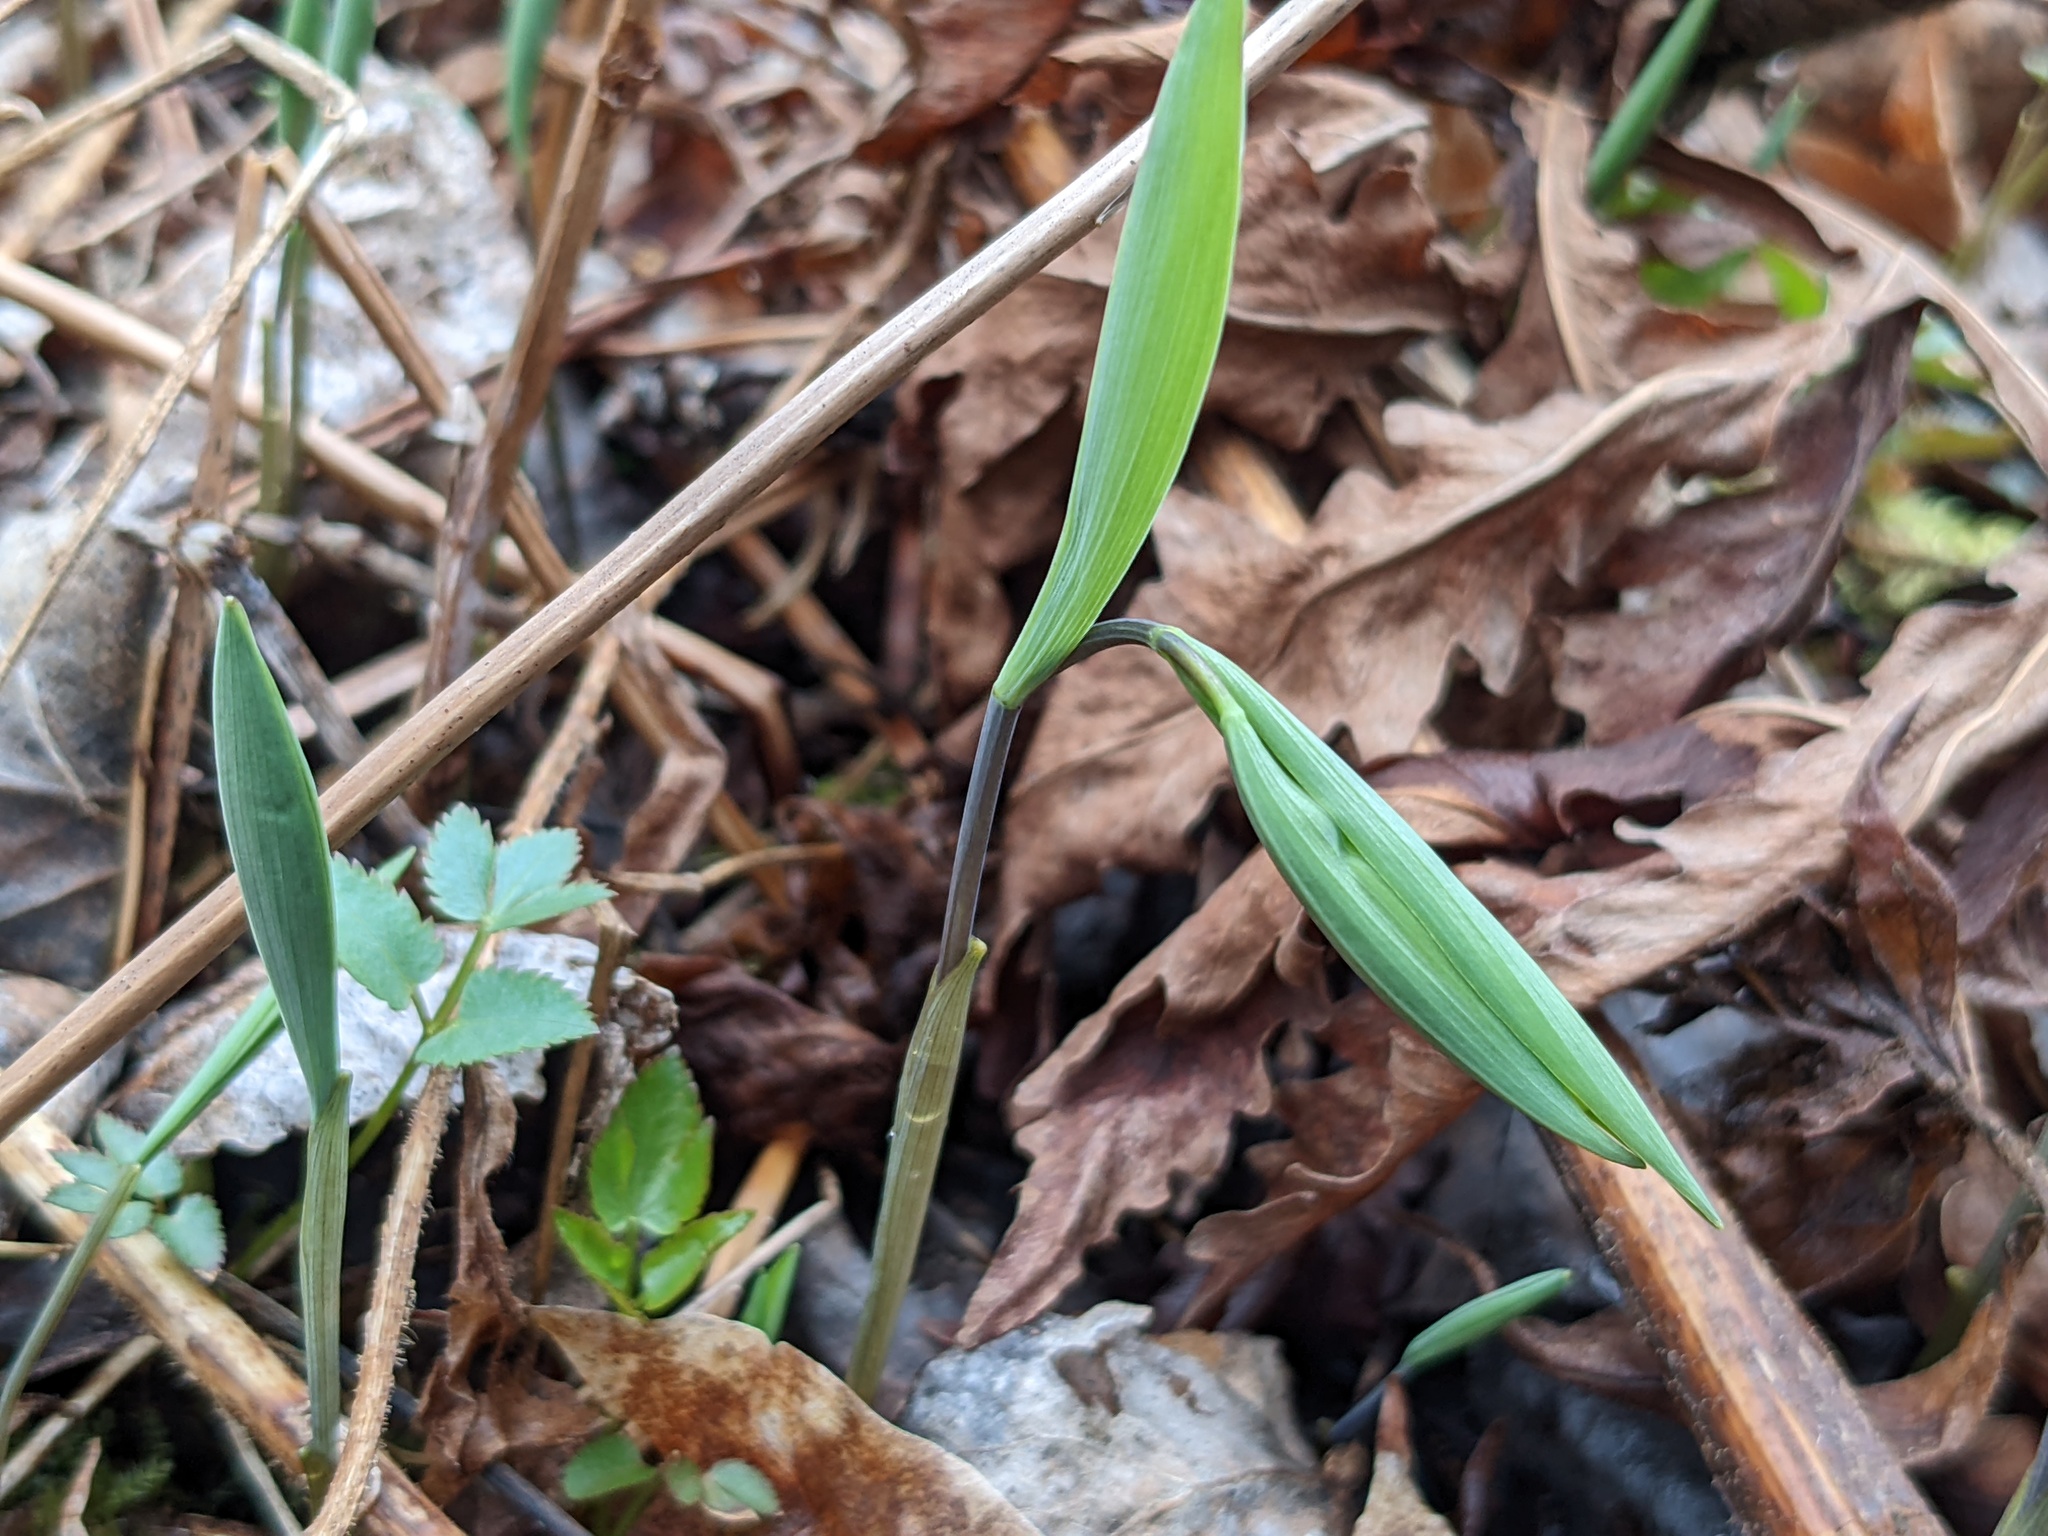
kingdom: Plantae
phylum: Tracheophyta
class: Liliopsida
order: Liliales
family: Colchicaceae
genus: Uvularia
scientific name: Uvularia sessilifolia
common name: Straw-lily
